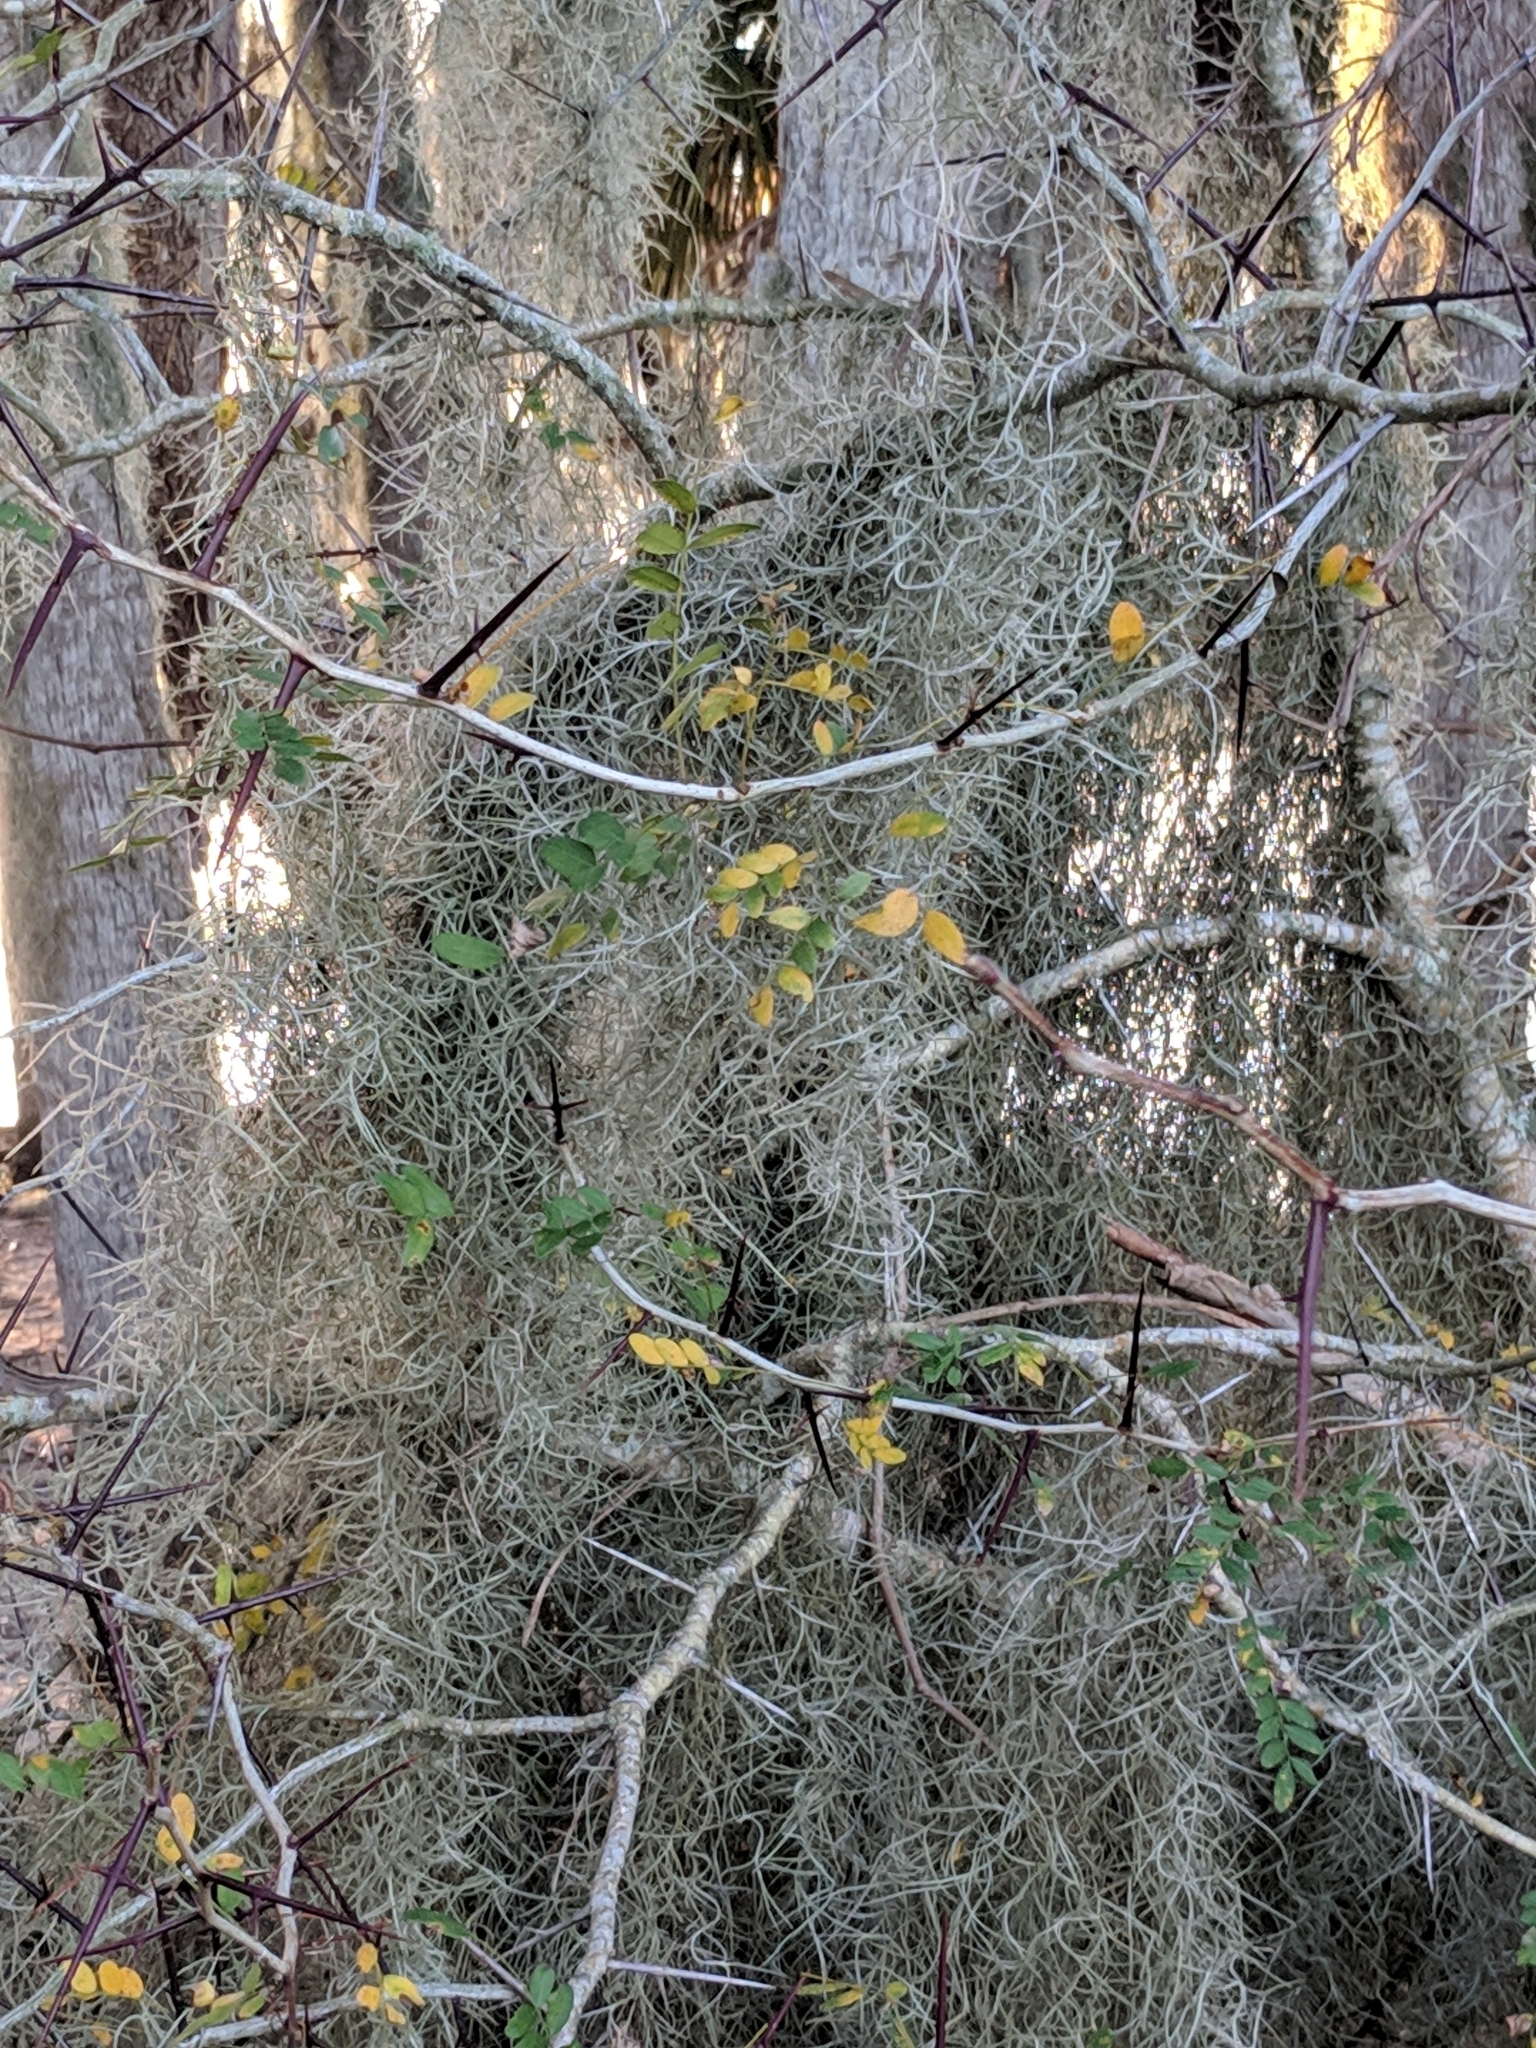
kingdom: Plantae
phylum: Tracheophyta
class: Magnoliopsida
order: Fabales
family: Fabaceae
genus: Gleditsia
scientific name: Gleditsia aquatica
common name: Swamp-locust
